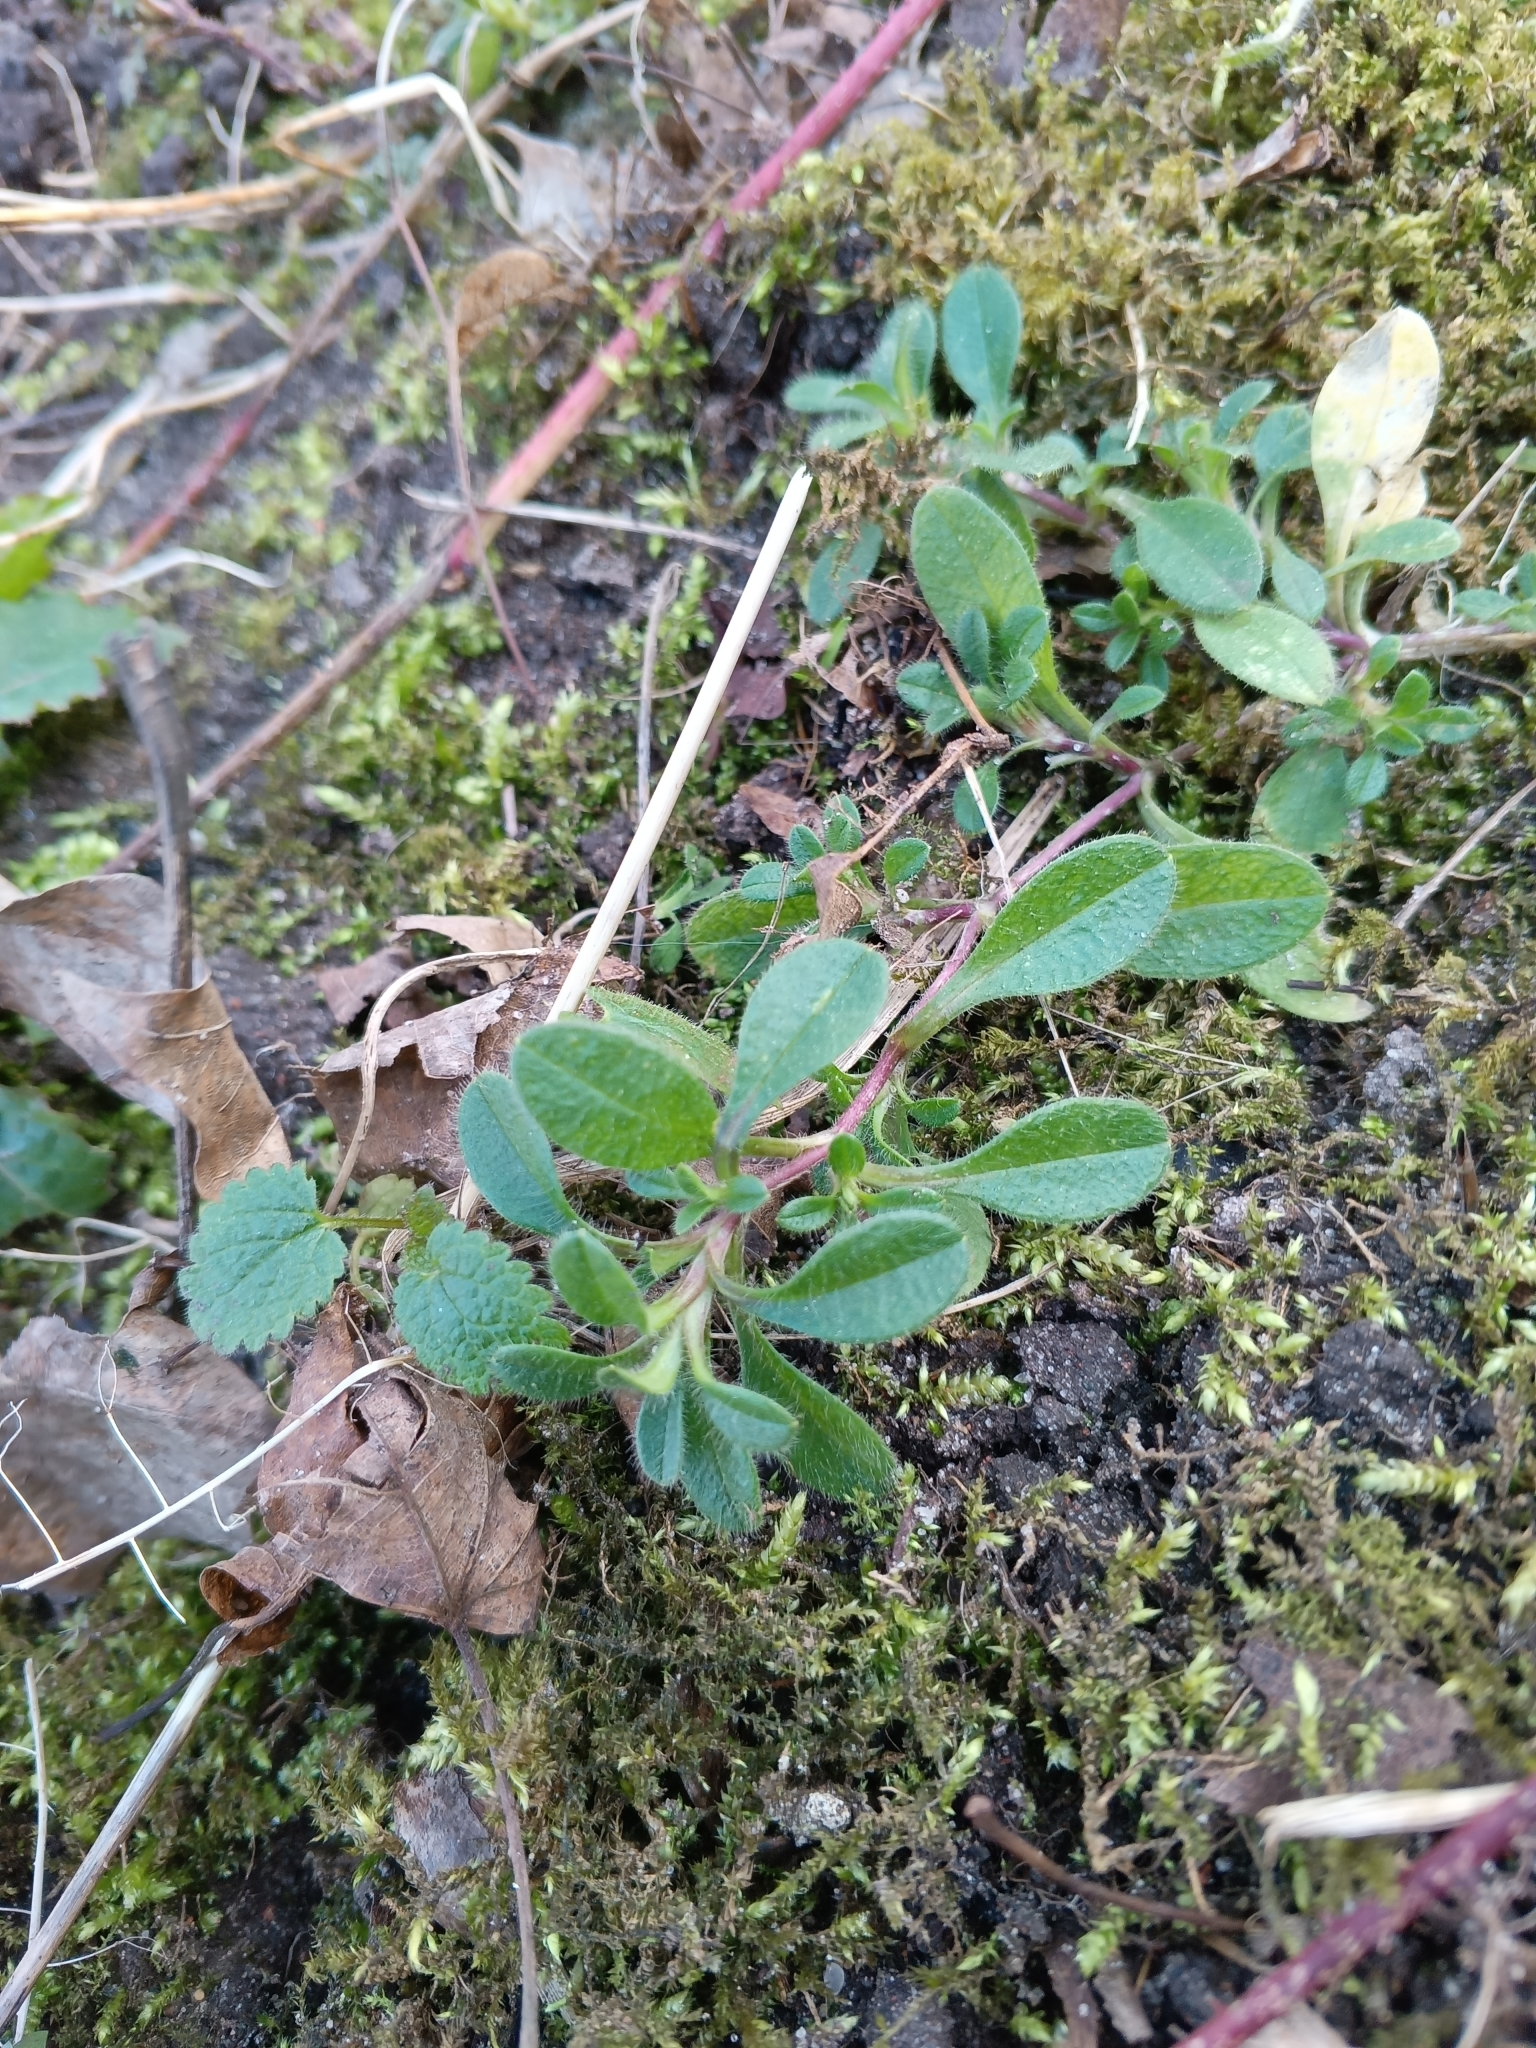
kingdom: Plantae
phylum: Tracheophyta
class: Magnoliopsida
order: Caryophyllales
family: Caryophyllaceae
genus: Cerastium
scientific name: Cerastium holosteoides
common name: Big chickweed
